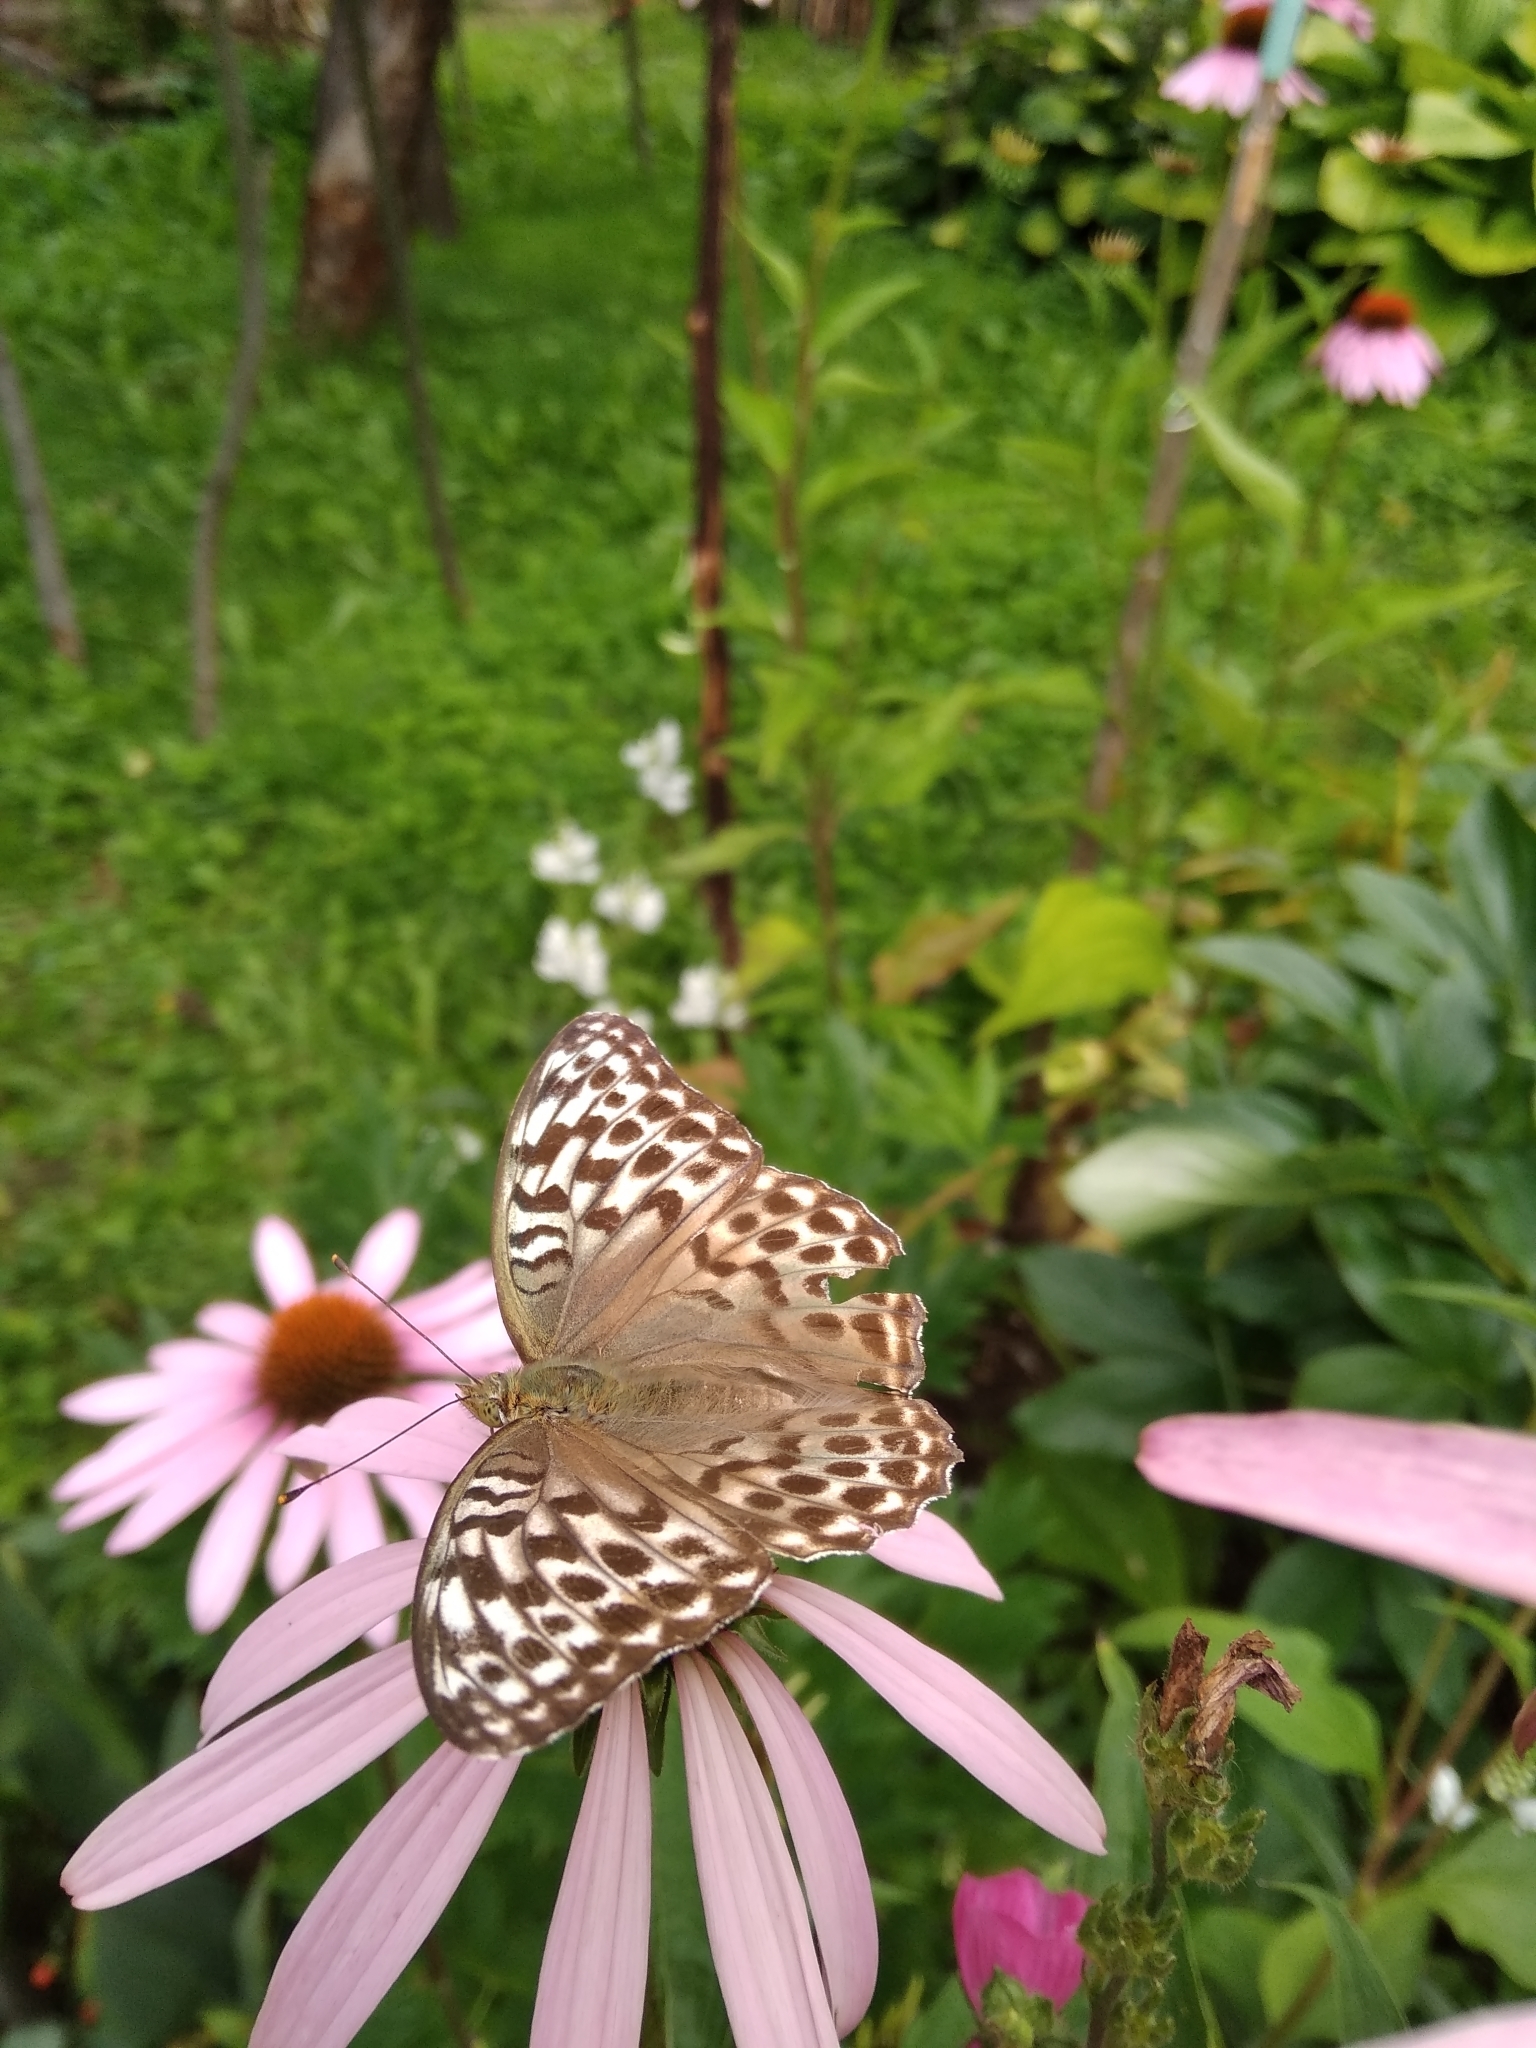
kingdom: Animalia
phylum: Arthropoda
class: Insecta
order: Lepidoptera
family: Nymphalidae
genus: Argynnis
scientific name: Argynnis paphia
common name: Silver-washed fritillary
